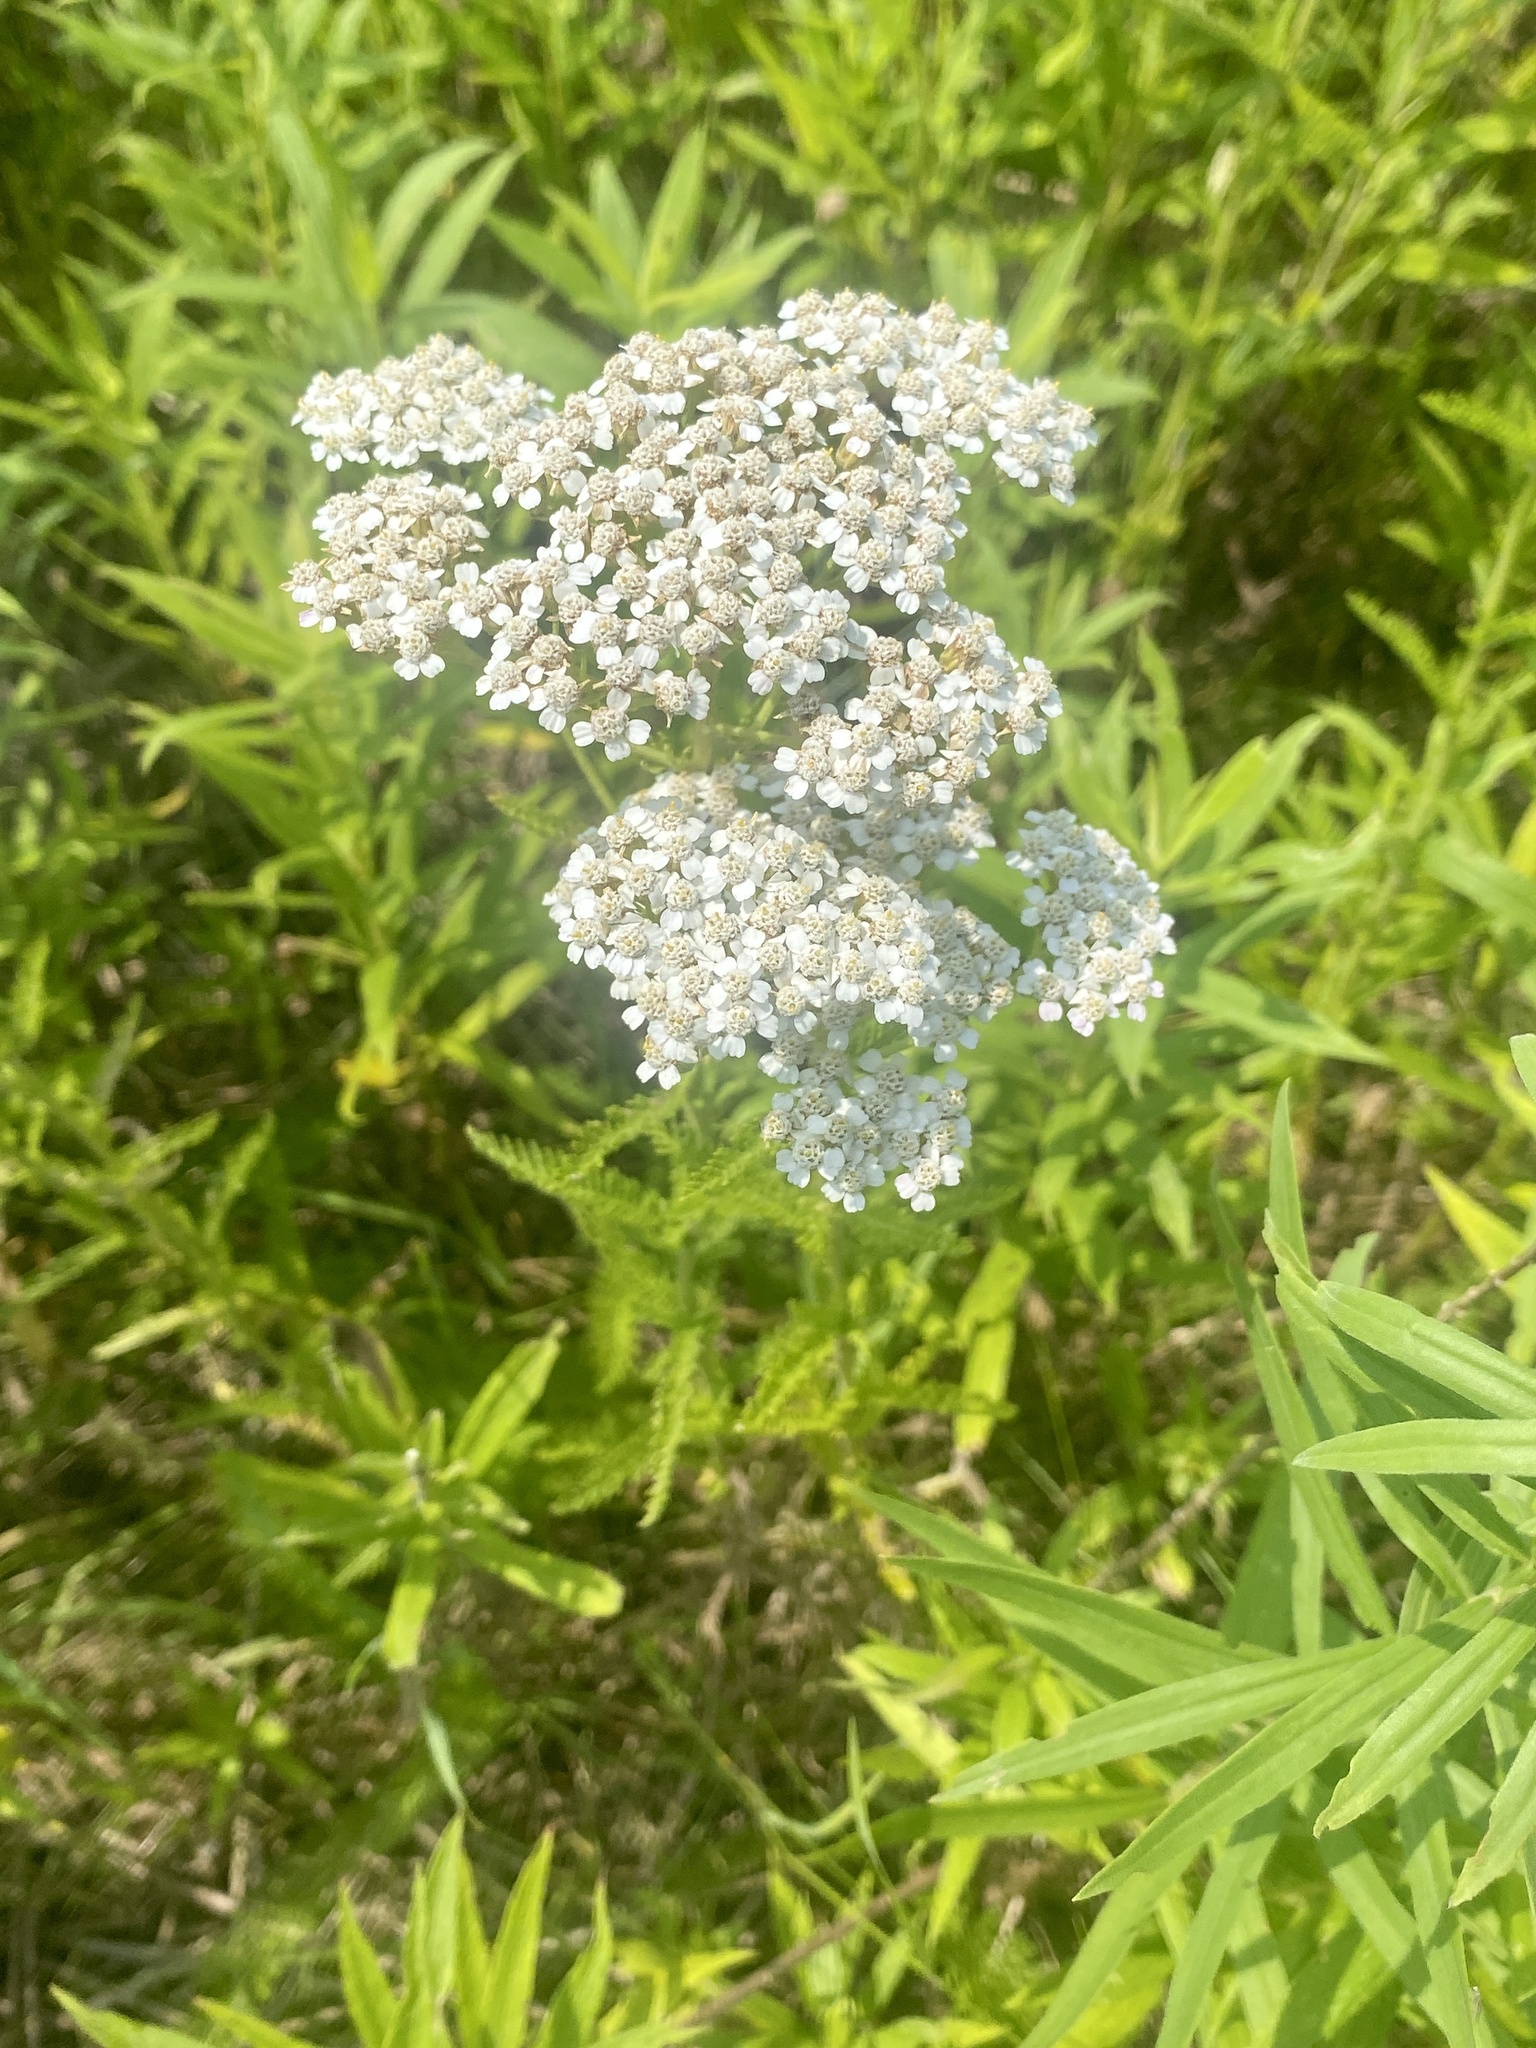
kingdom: Plantae
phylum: Tracheophyta
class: Magnoliopsida
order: Asterales
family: Asteraceae
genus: Achillea
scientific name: Achillea millefolium
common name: Yarrow
